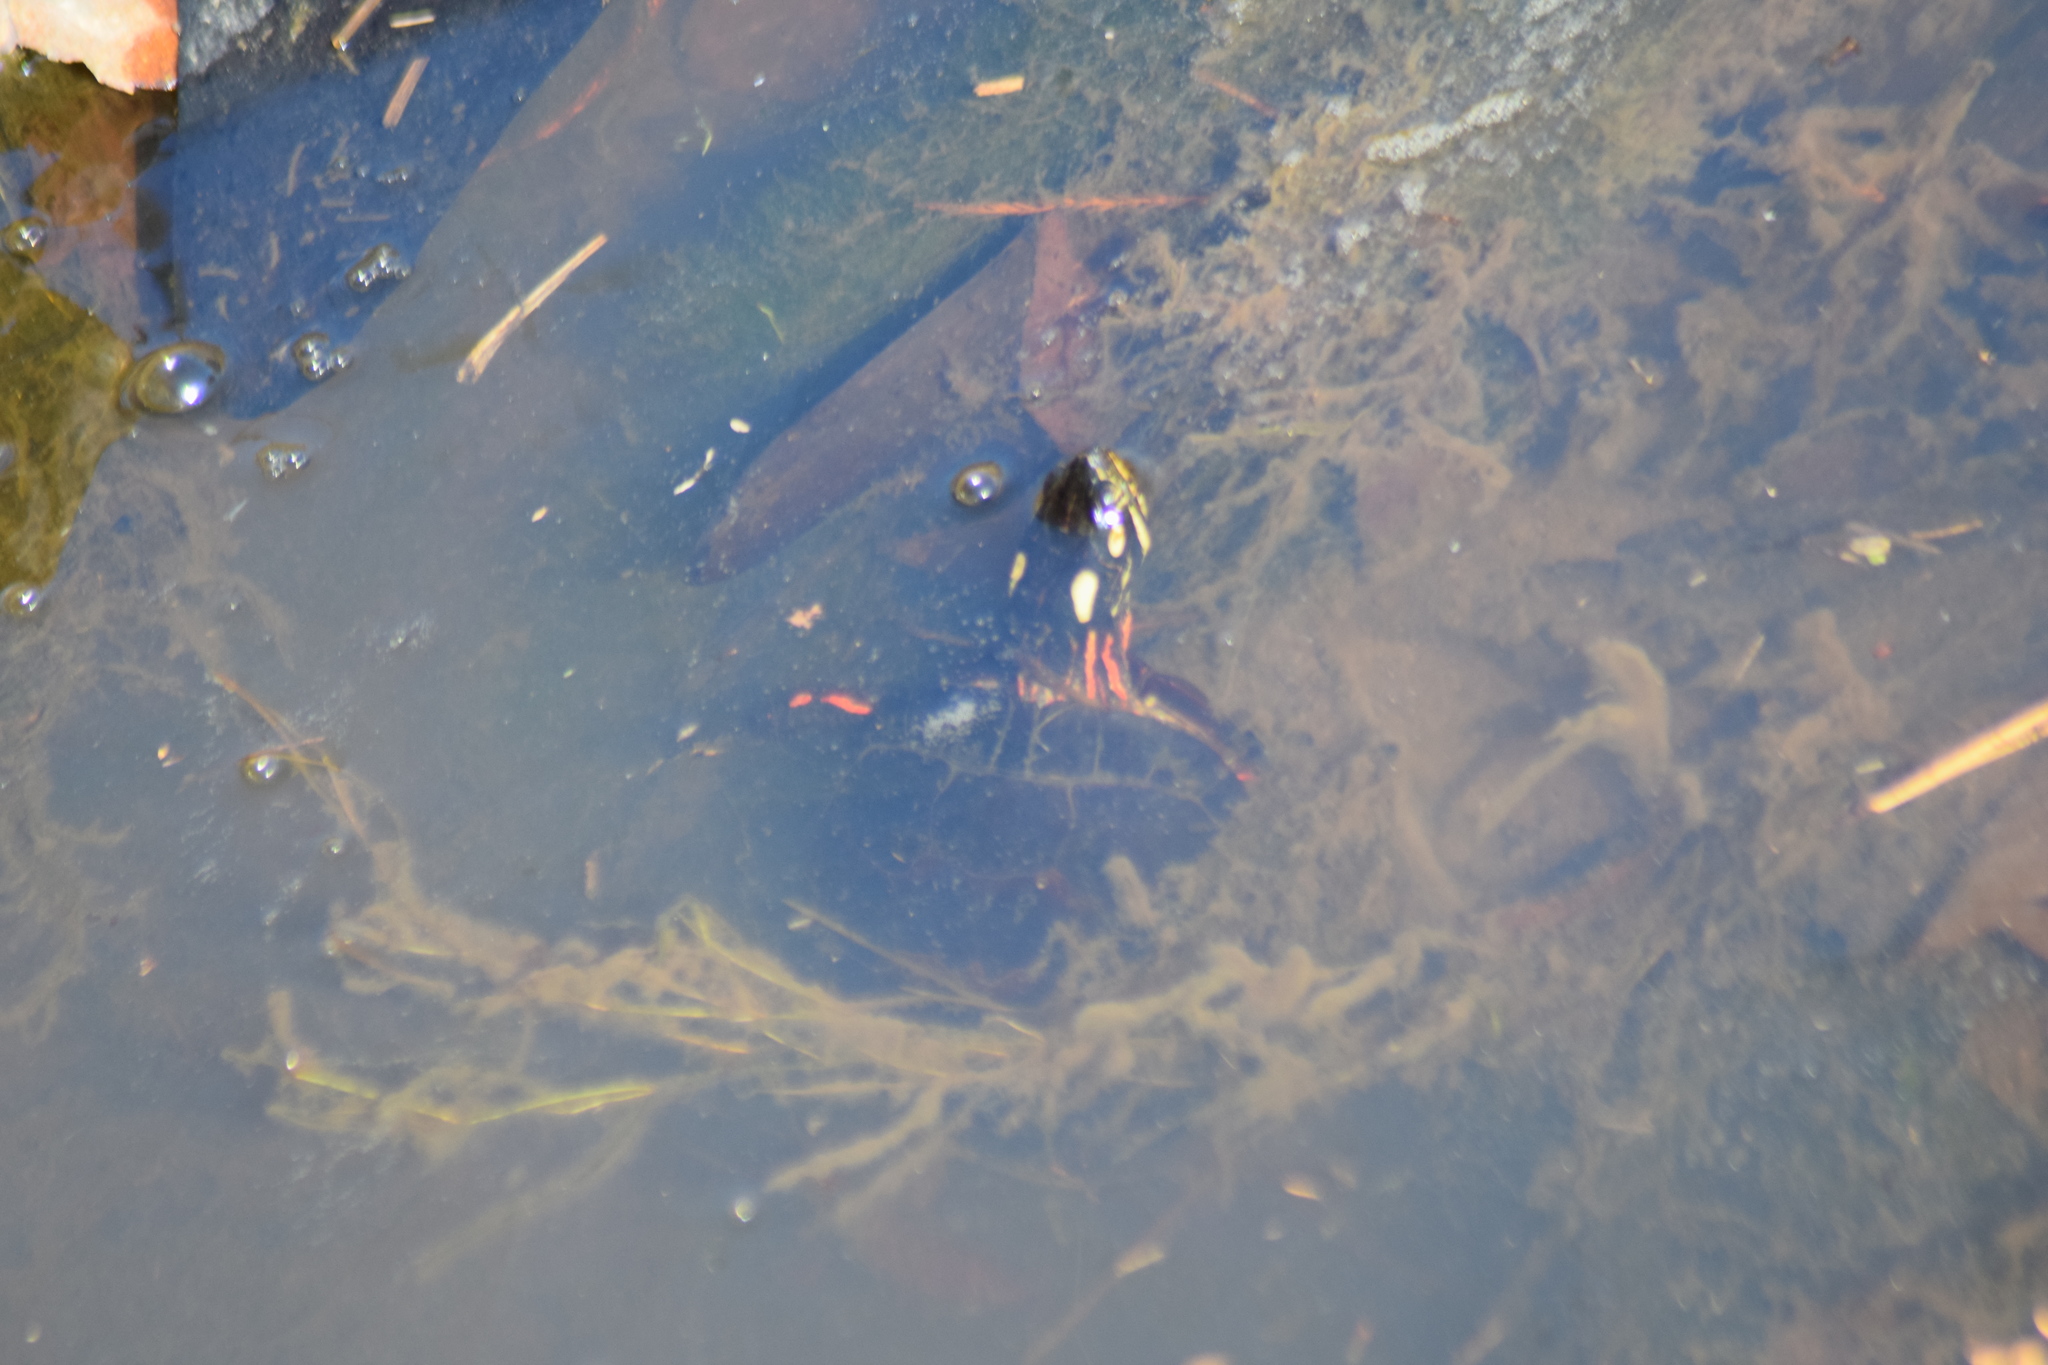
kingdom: Animalia
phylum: Chordata
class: Testudines
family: Emydidae
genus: Chrysemys
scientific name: Chrysemys picta
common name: Painted turtle
